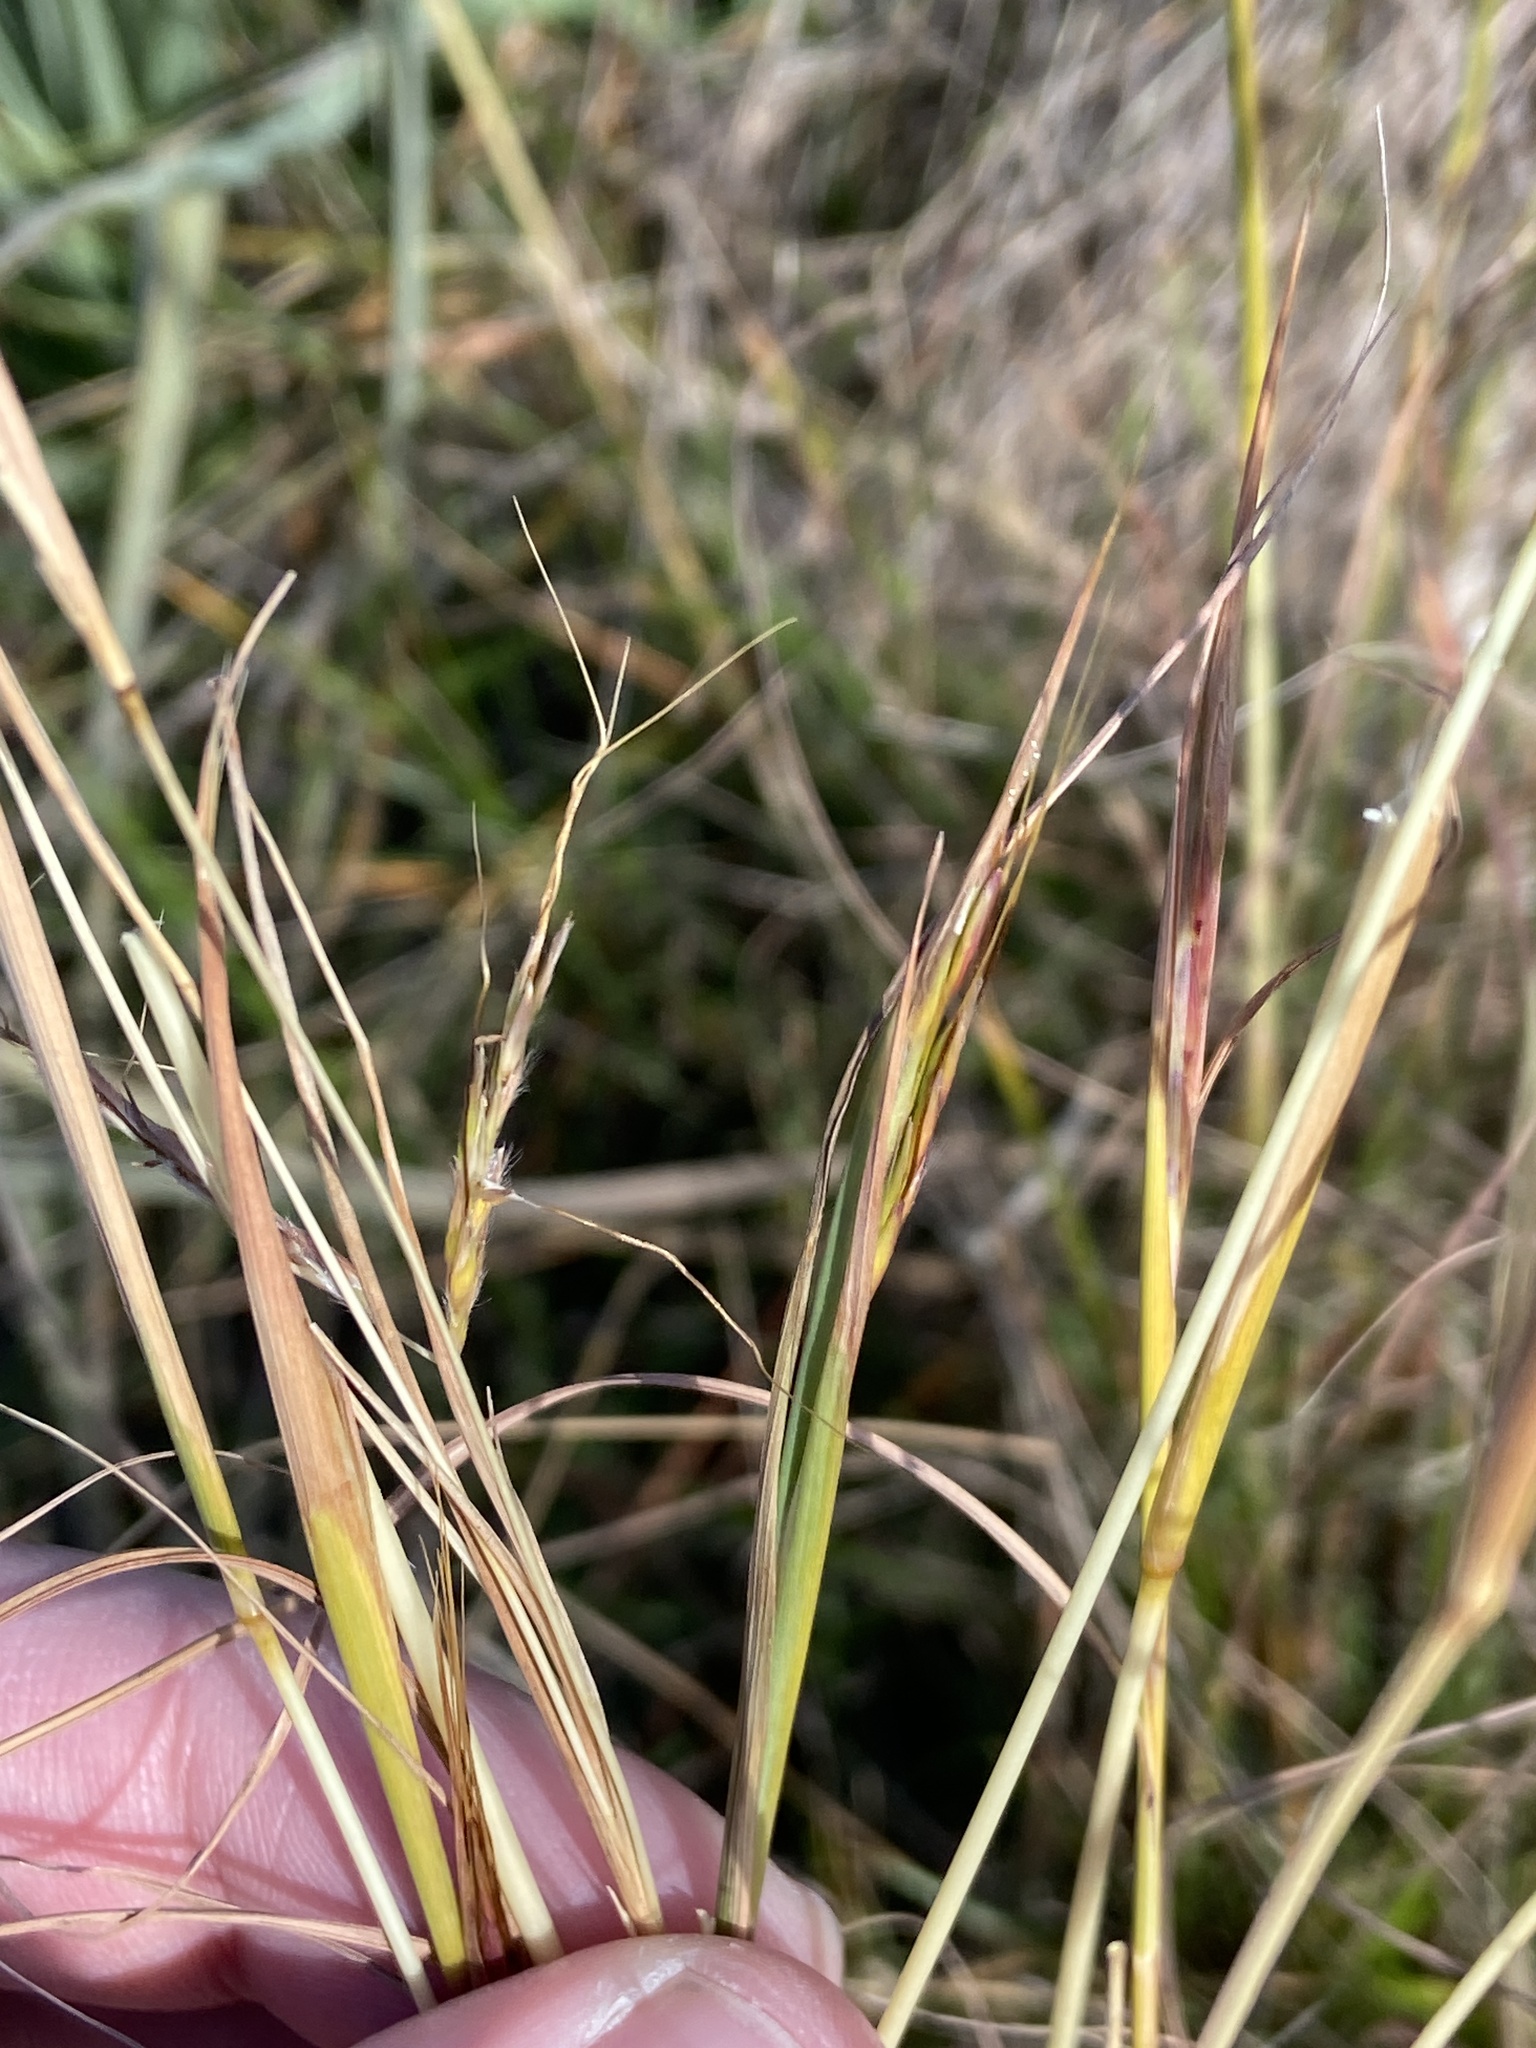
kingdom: Plantae
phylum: Tracheophyta
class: Liliopsida
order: Poales
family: Poaceae
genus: Hyparrhenia
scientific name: Hyparrhenia hirta
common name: Thatching grass
